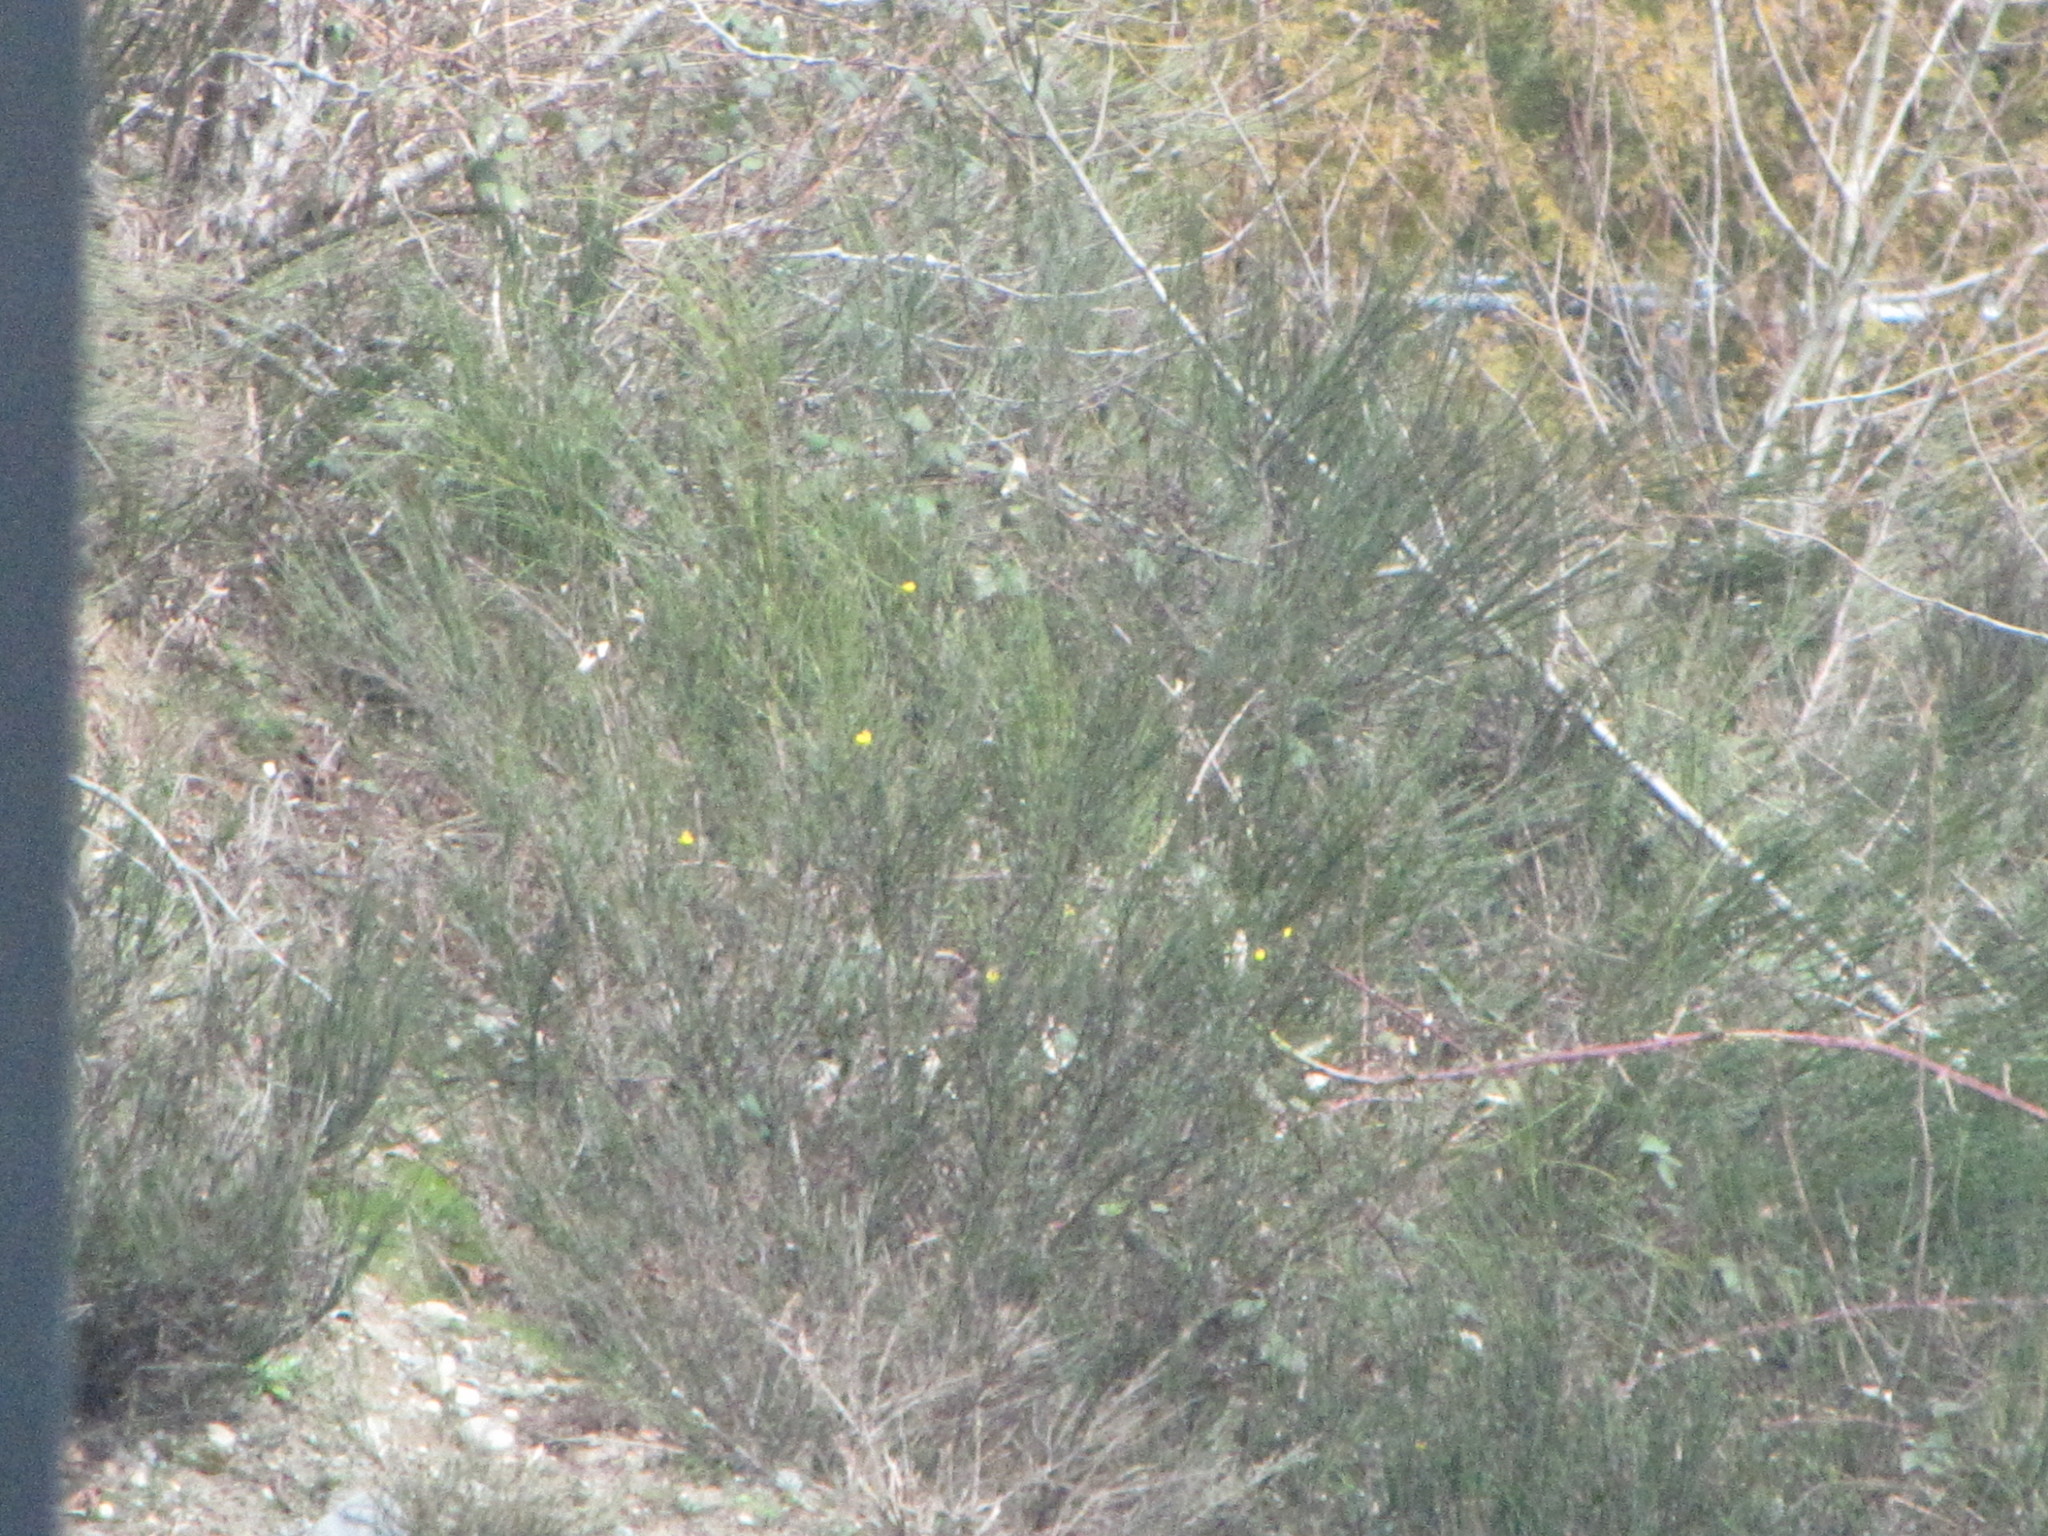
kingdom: Plantae
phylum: Tracheophyta
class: Magnoliopsida
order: Fabales
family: Fabaceae
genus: Cytisus
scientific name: Cytisus scoparius
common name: Scotch broom
